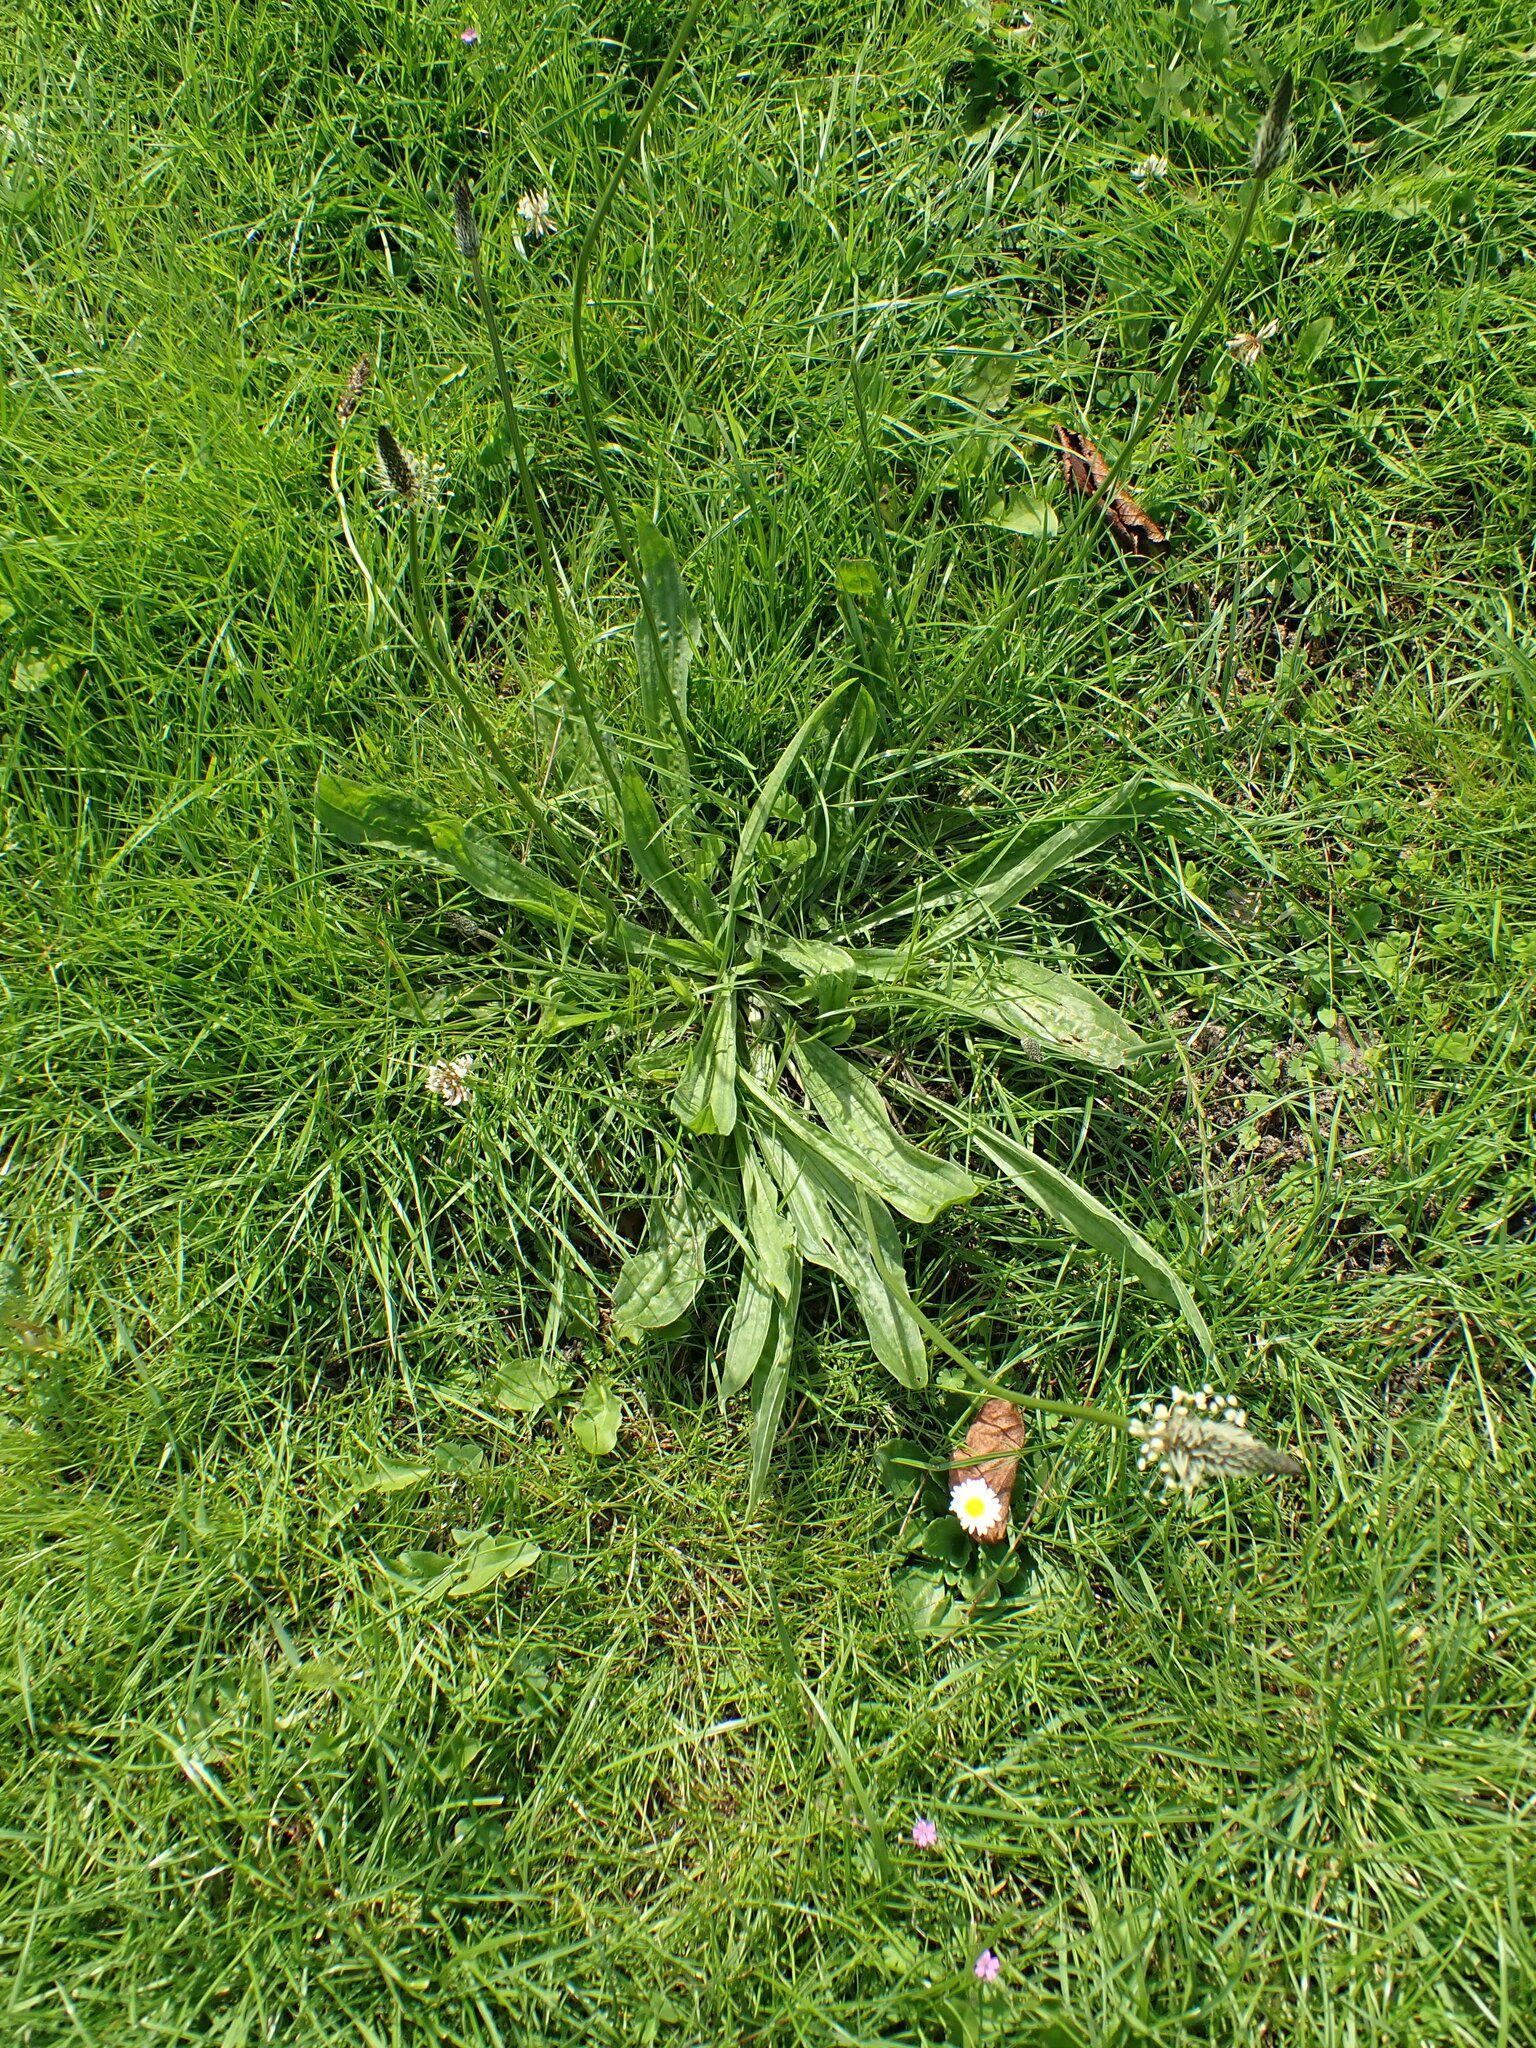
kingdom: Plantae
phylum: Tracheophyta
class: Magnoliopsida
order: Lamiales
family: Plantaginaceae
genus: Plantago
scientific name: Plantago lanceolata
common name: Ribwort plantain
